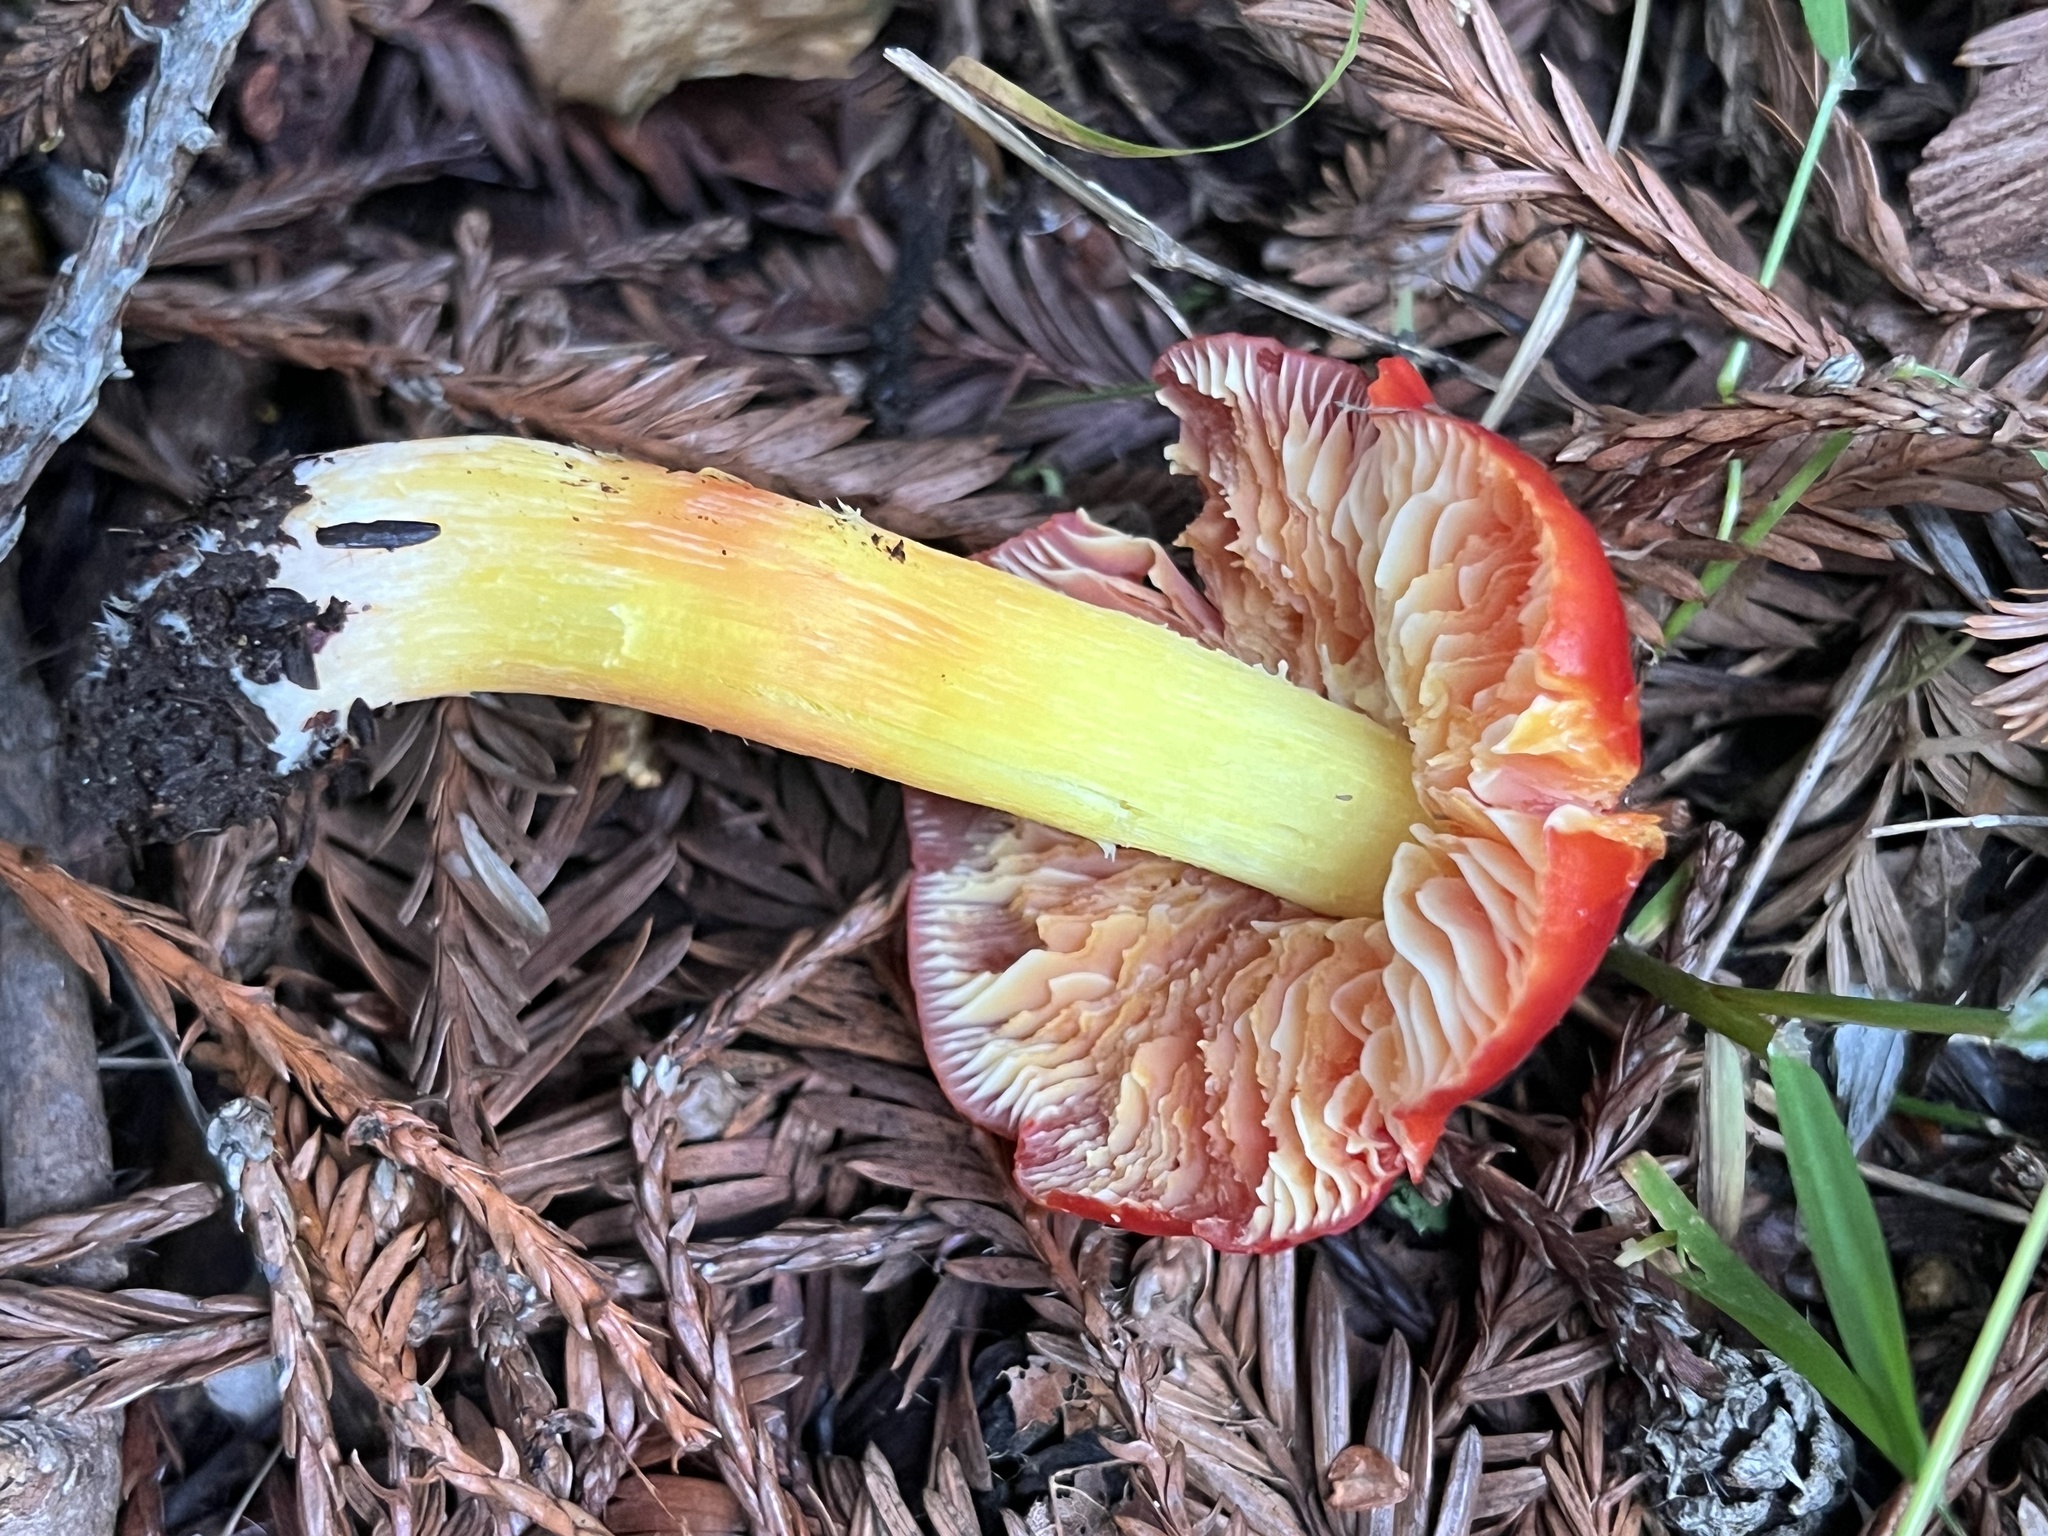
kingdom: Fungi
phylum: Basidiomycota
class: Agaricomycetes
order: Agaricales
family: Hygrophoraceae
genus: Hygrocybe
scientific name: Hygrocybe laetissima
